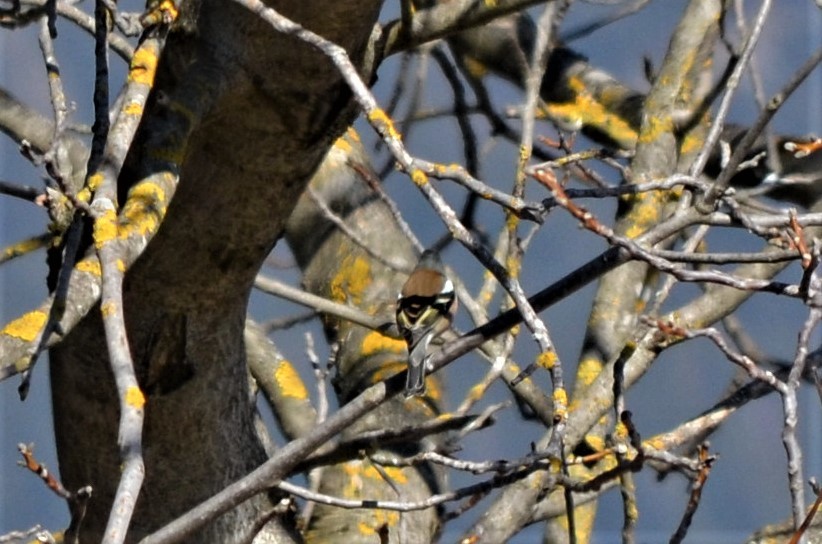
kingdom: Animalia
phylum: Chordata
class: Aves
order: Passeriformes
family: Fringillidae
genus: Fringilla
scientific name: Fringilla coelebs
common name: Common chaffinch
